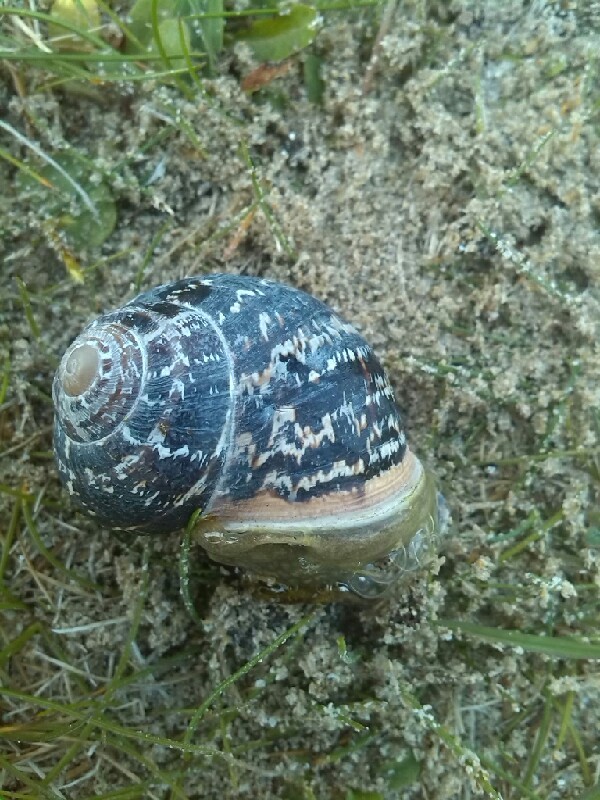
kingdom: Animalia
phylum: Mollusca
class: Gastropoda
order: Stylommatophora
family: Helicidae
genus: Cornu
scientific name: Cornu aspersum
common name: Brown garden snail
